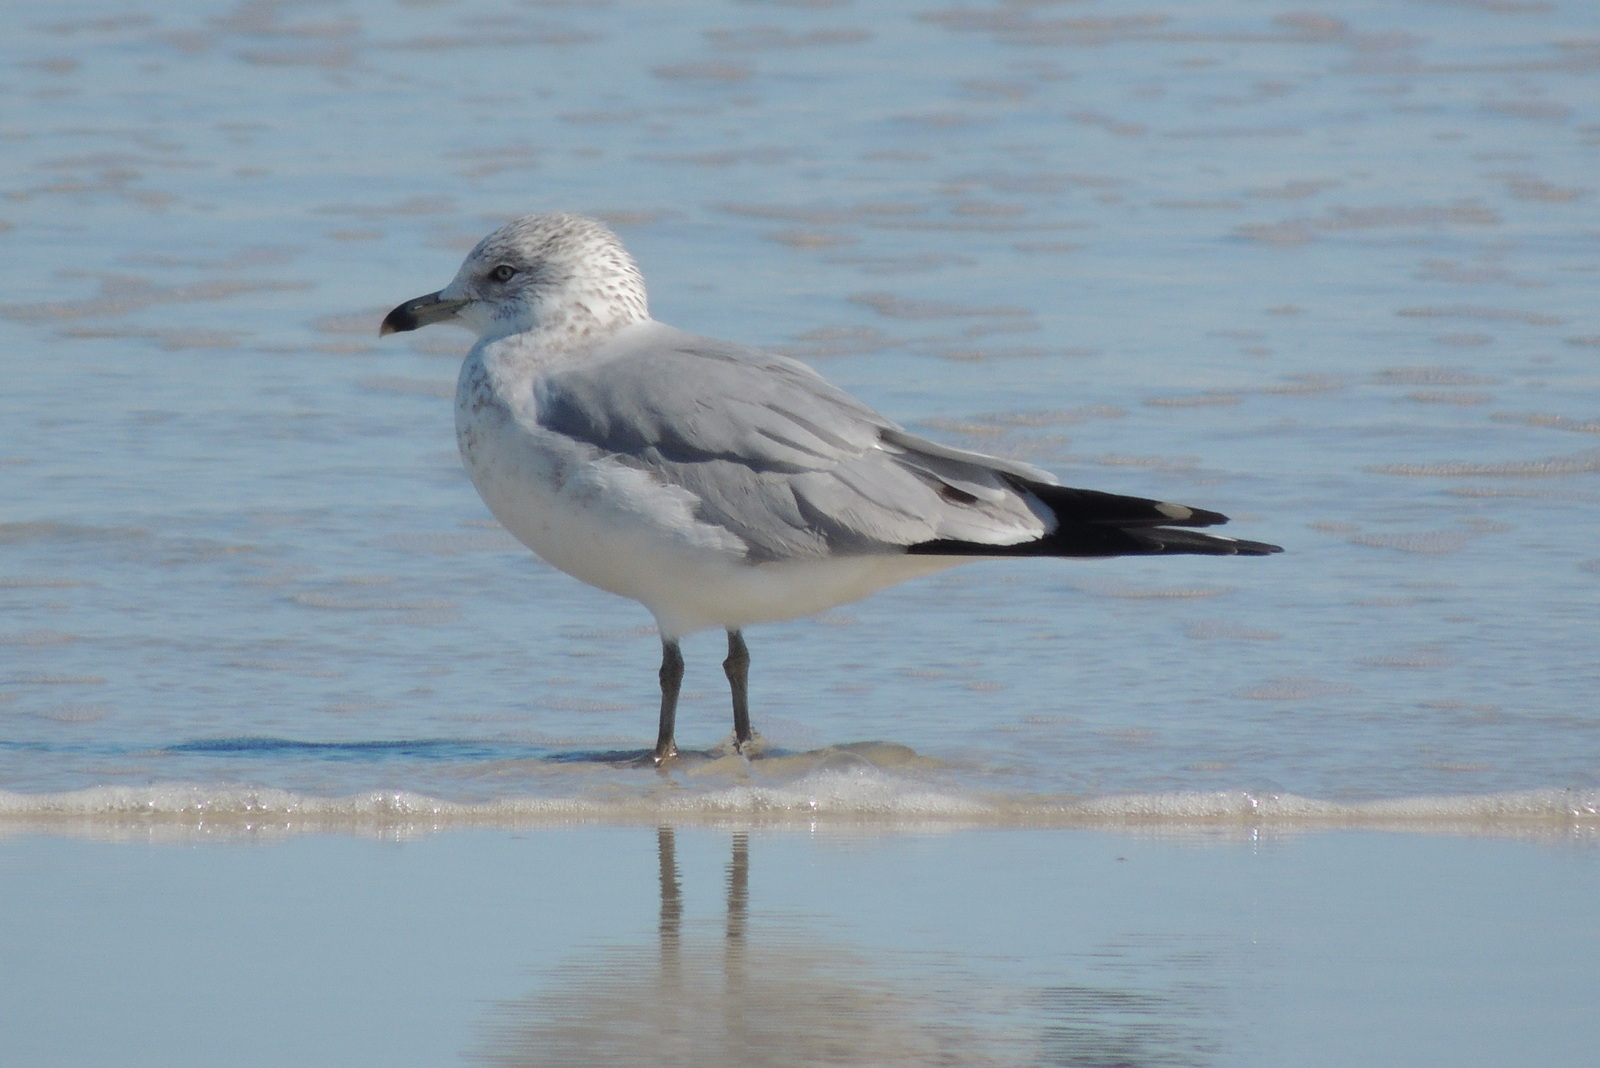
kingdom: Animalia
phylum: Chordata
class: Aves
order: Charadriiformes
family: Laridae
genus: Larus
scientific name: Larus delawarensis
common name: Ring-billed gull
